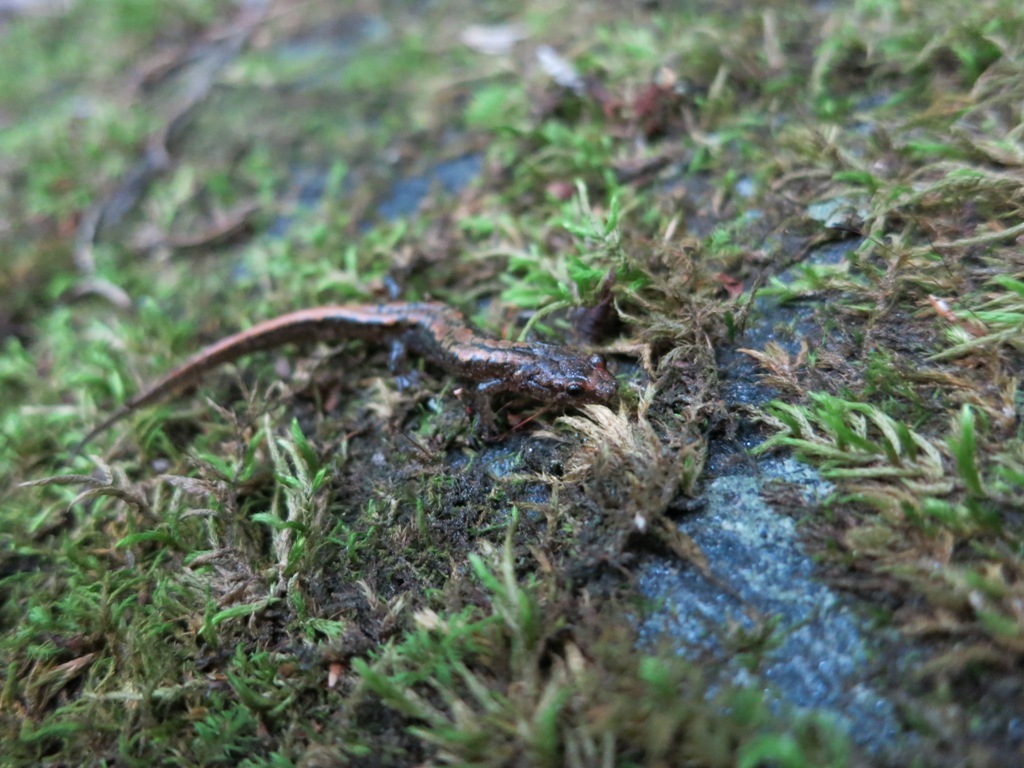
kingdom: Animalia
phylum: Chordata
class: Amphibia
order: Caudata
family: Plethodontidae
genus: Desmognathus
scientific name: Desmognathus orestes
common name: Blue ridge dusky salamander
